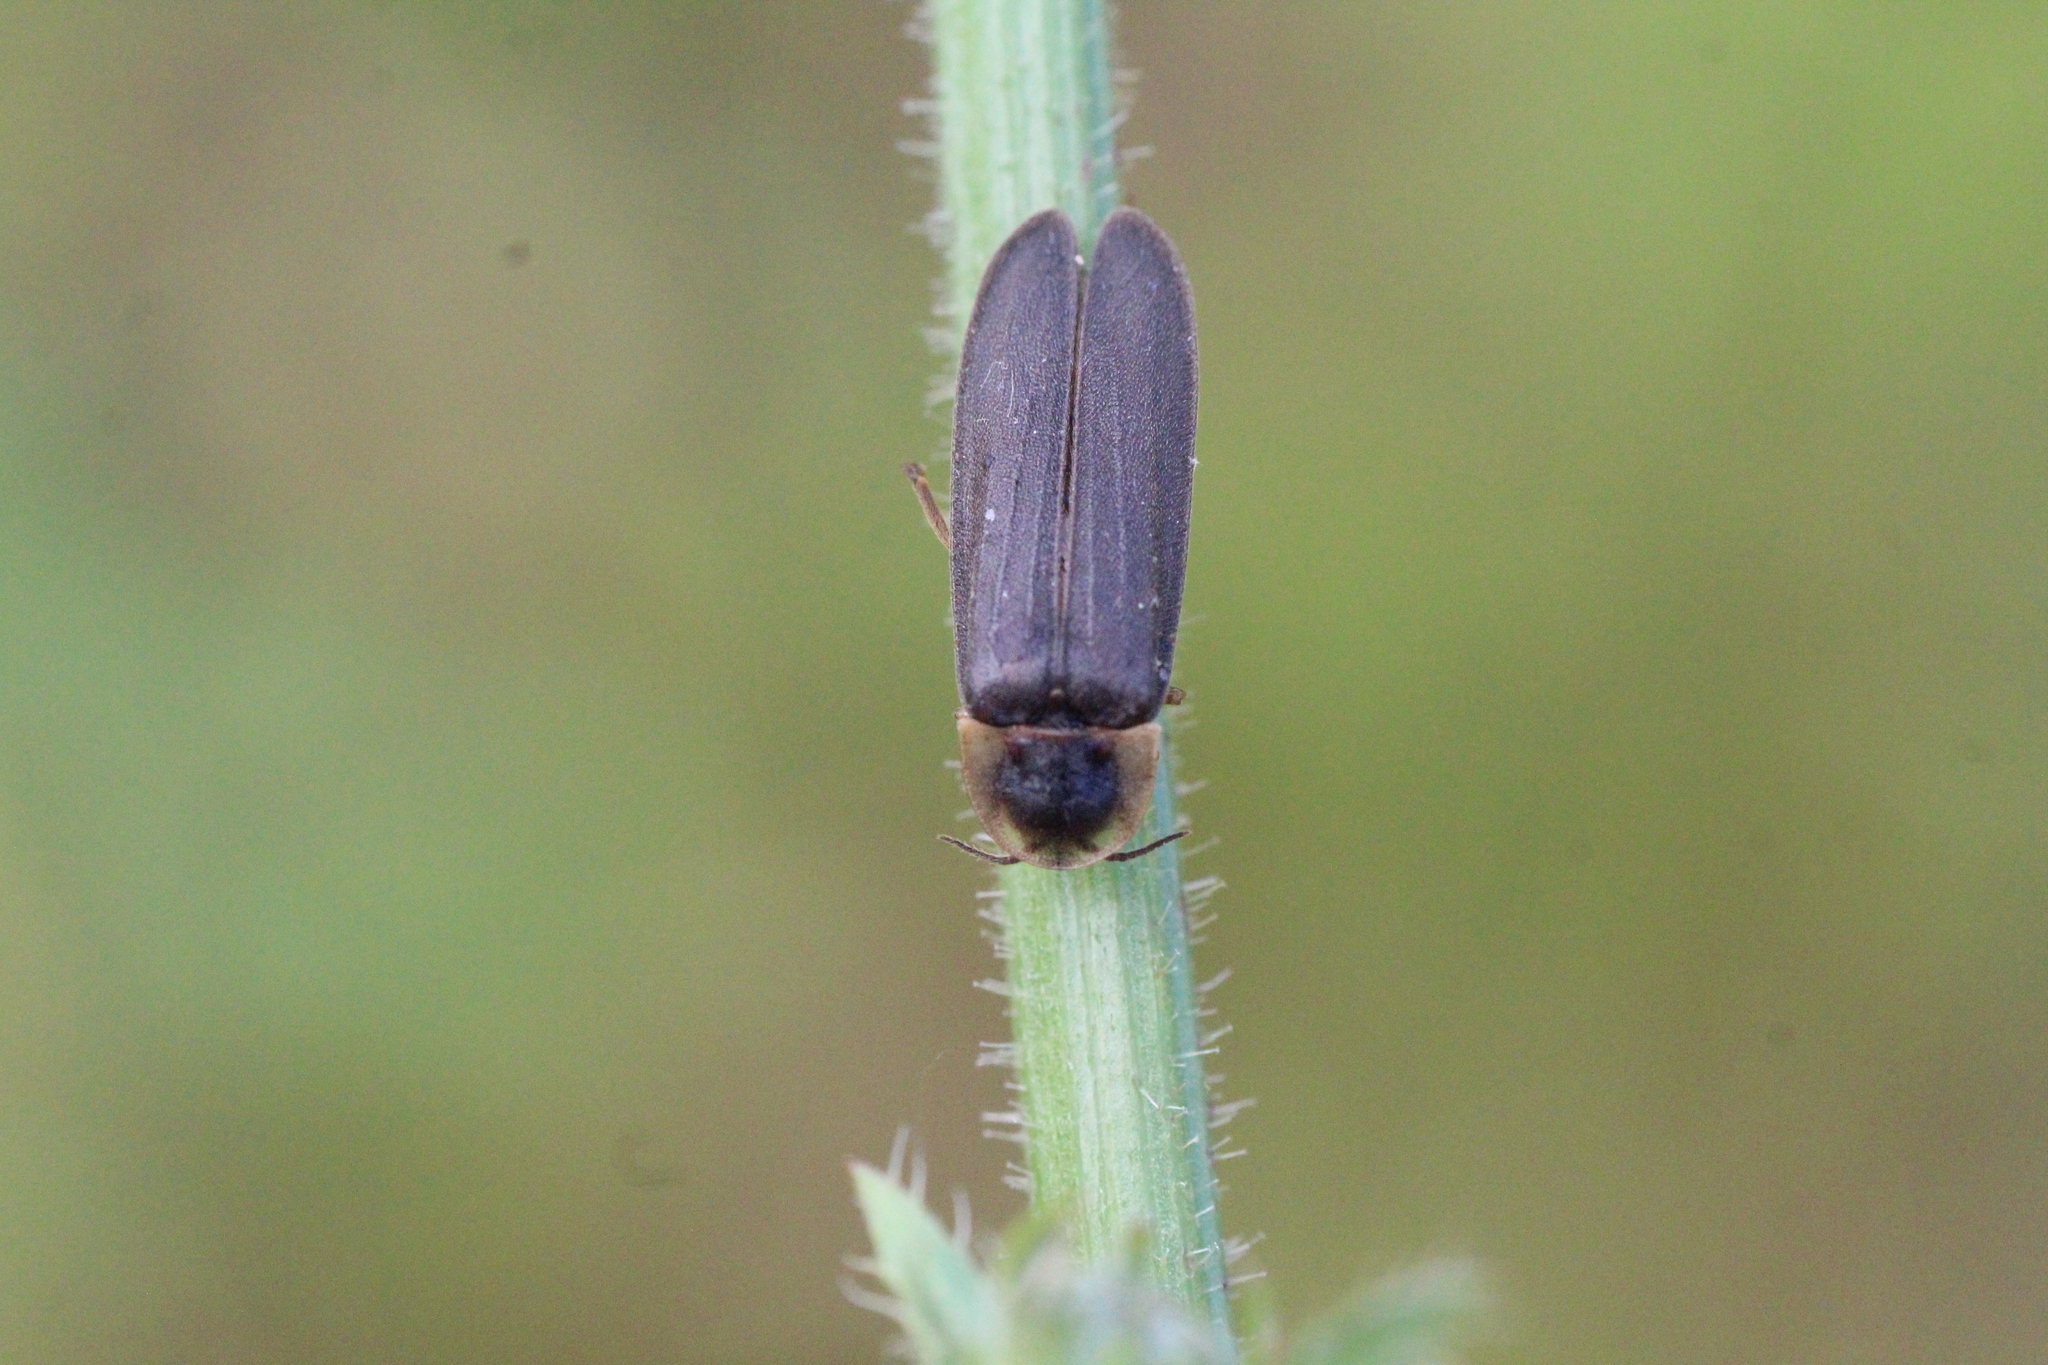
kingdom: Animalia
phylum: Arthropoda
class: Insecta
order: Coleoptera
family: Lampyridae
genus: Lampyris
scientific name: Lampyris noctiluca
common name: Glow-worm
